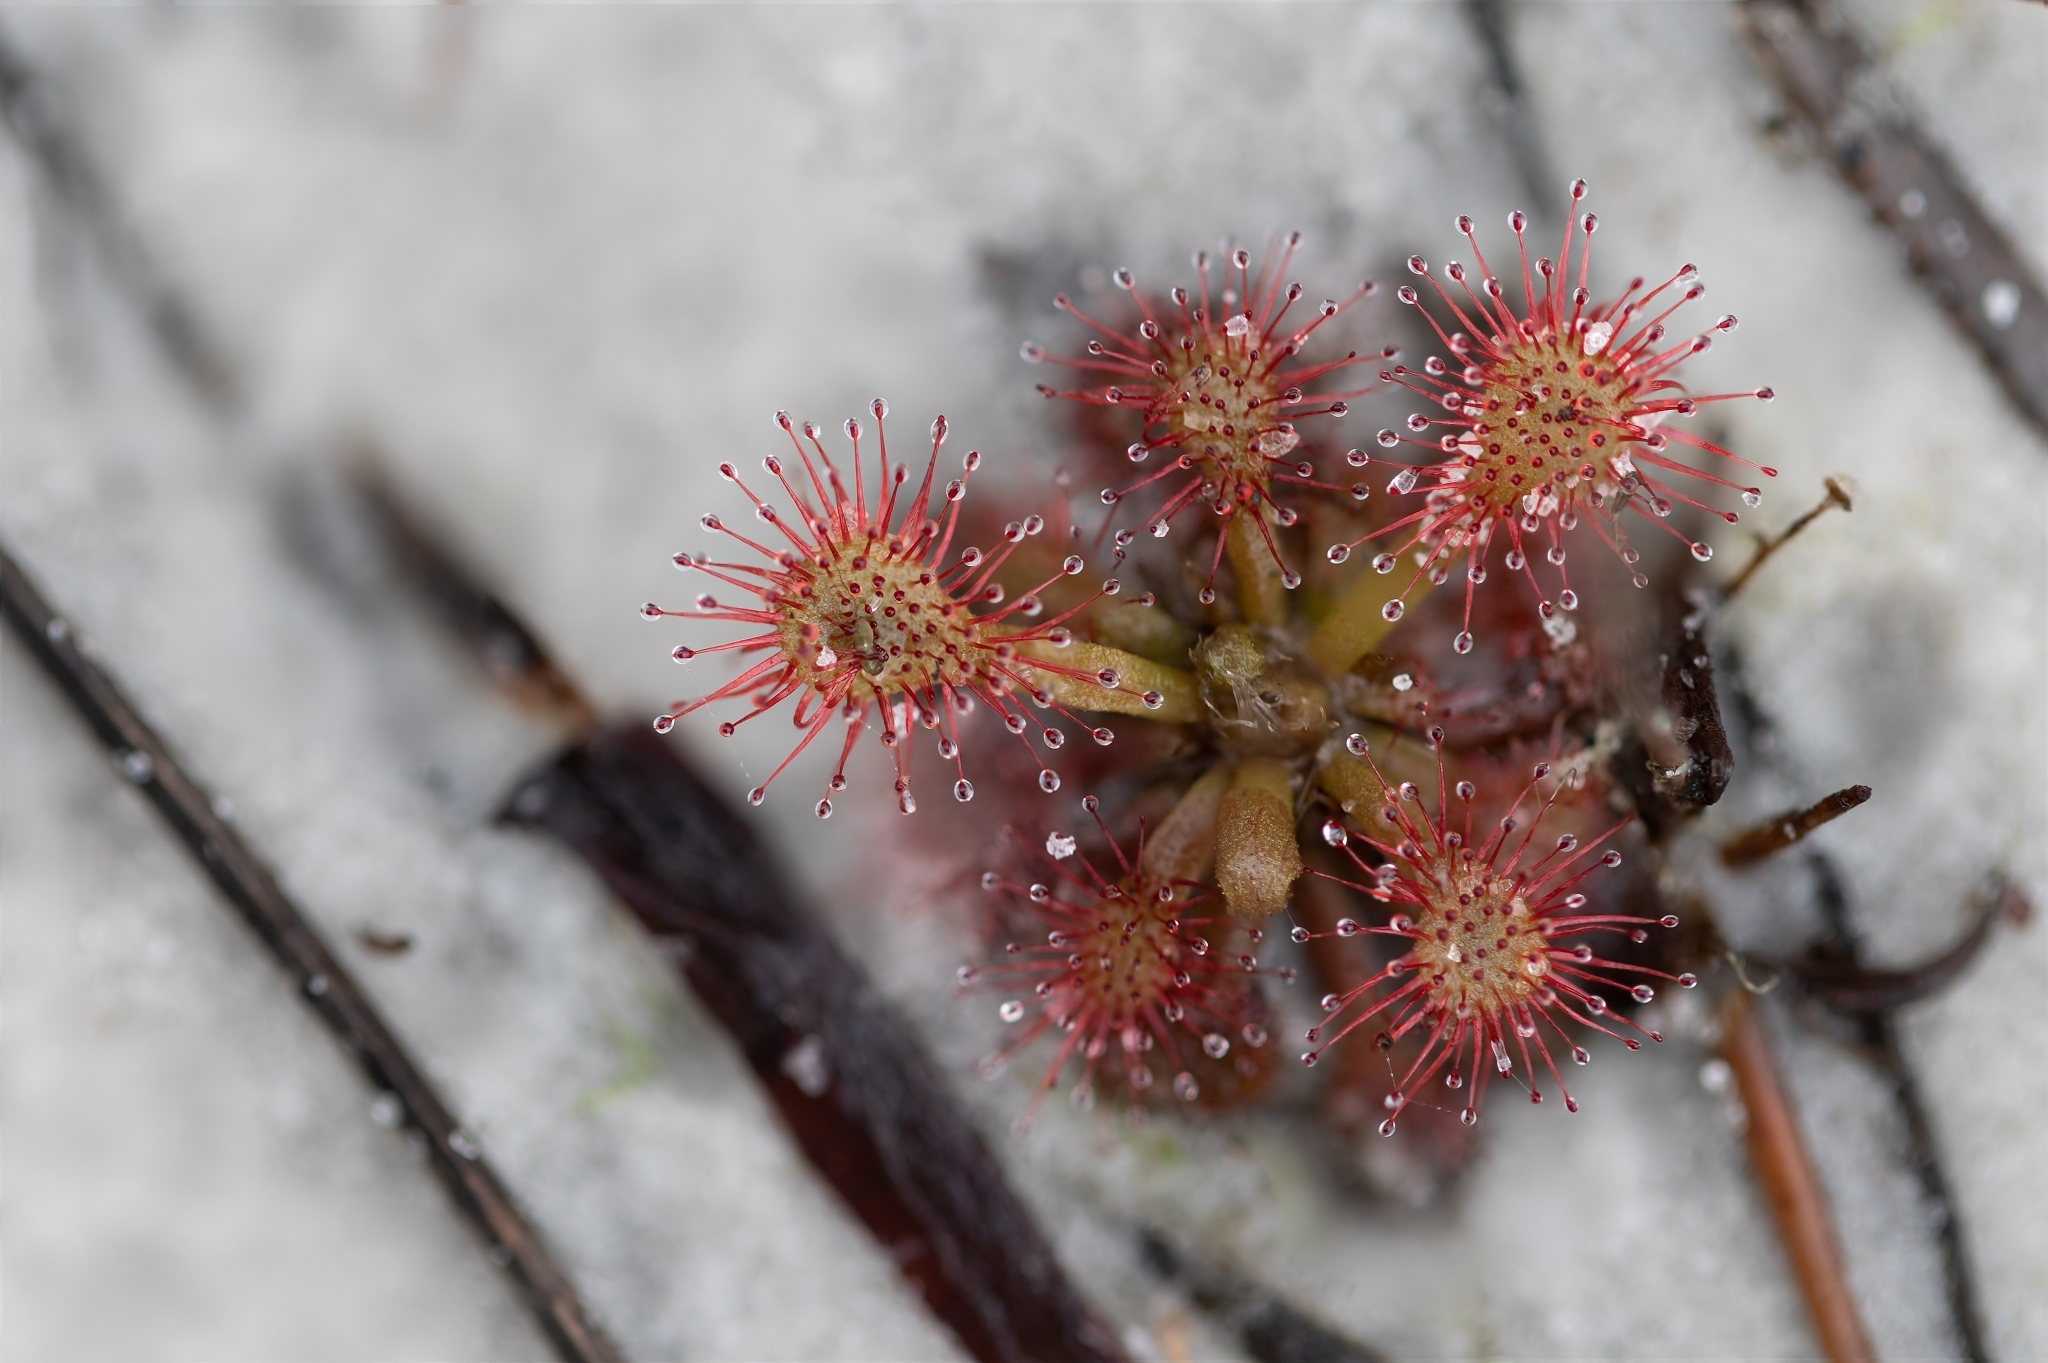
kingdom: Plantae
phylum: Tracheophyta
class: Magnoliopsida
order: Caryophyllales
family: Droseraceae
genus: Drosera
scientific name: Drosera capillaris
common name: Pink sundew
